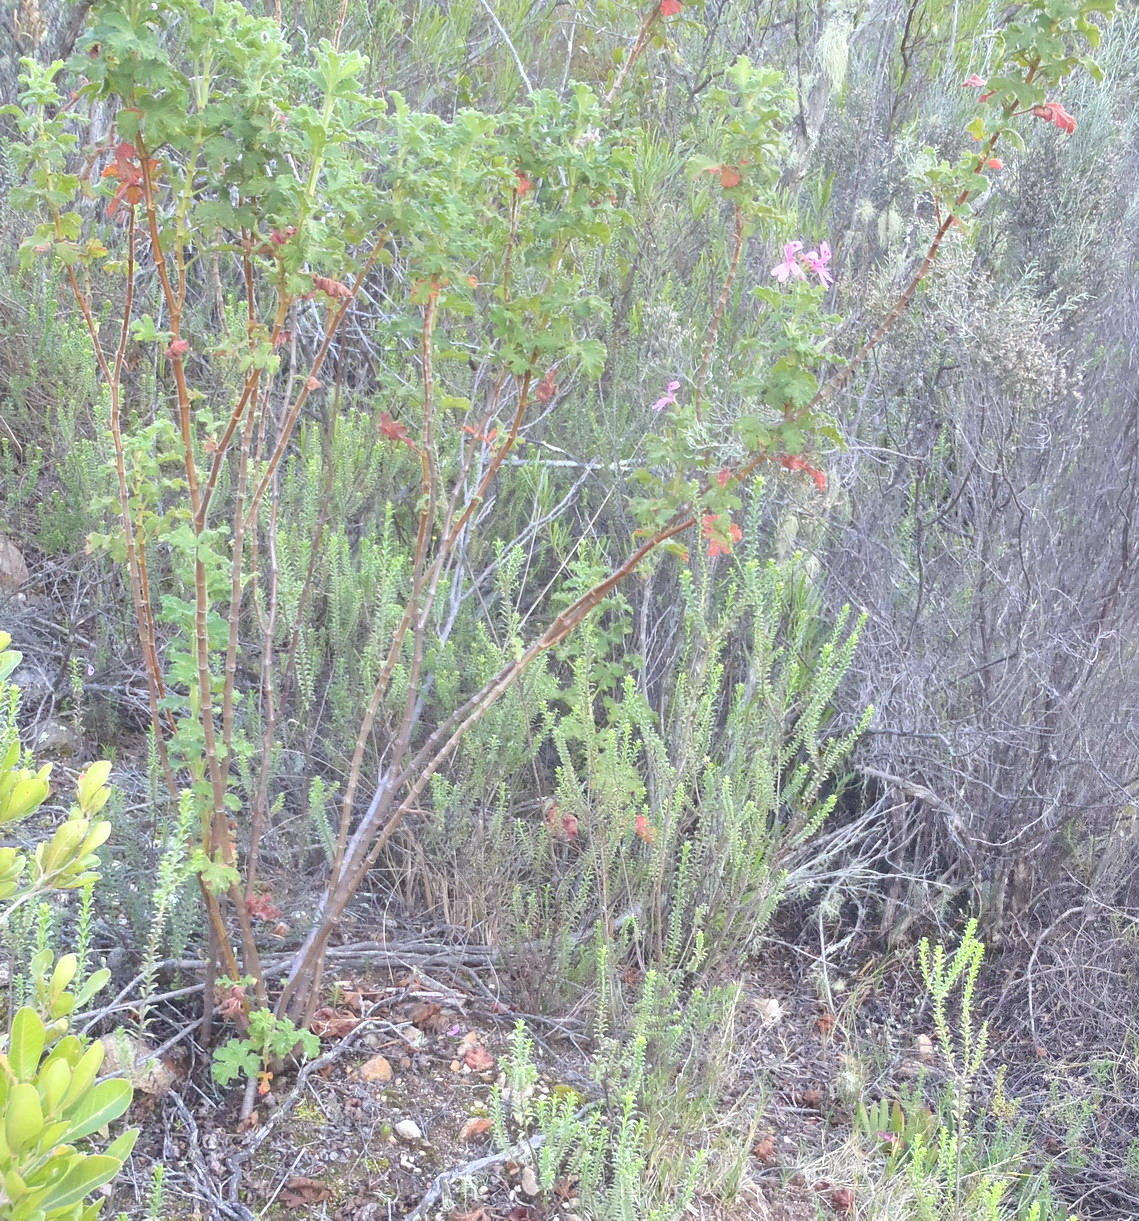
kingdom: Plantae
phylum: Tracheophyta
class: Magnoliopsida
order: Geraniales
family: Geraniaceae
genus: Pelargonium
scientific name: Pelargonium panduriforme
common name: Oakleaf garden geranium
